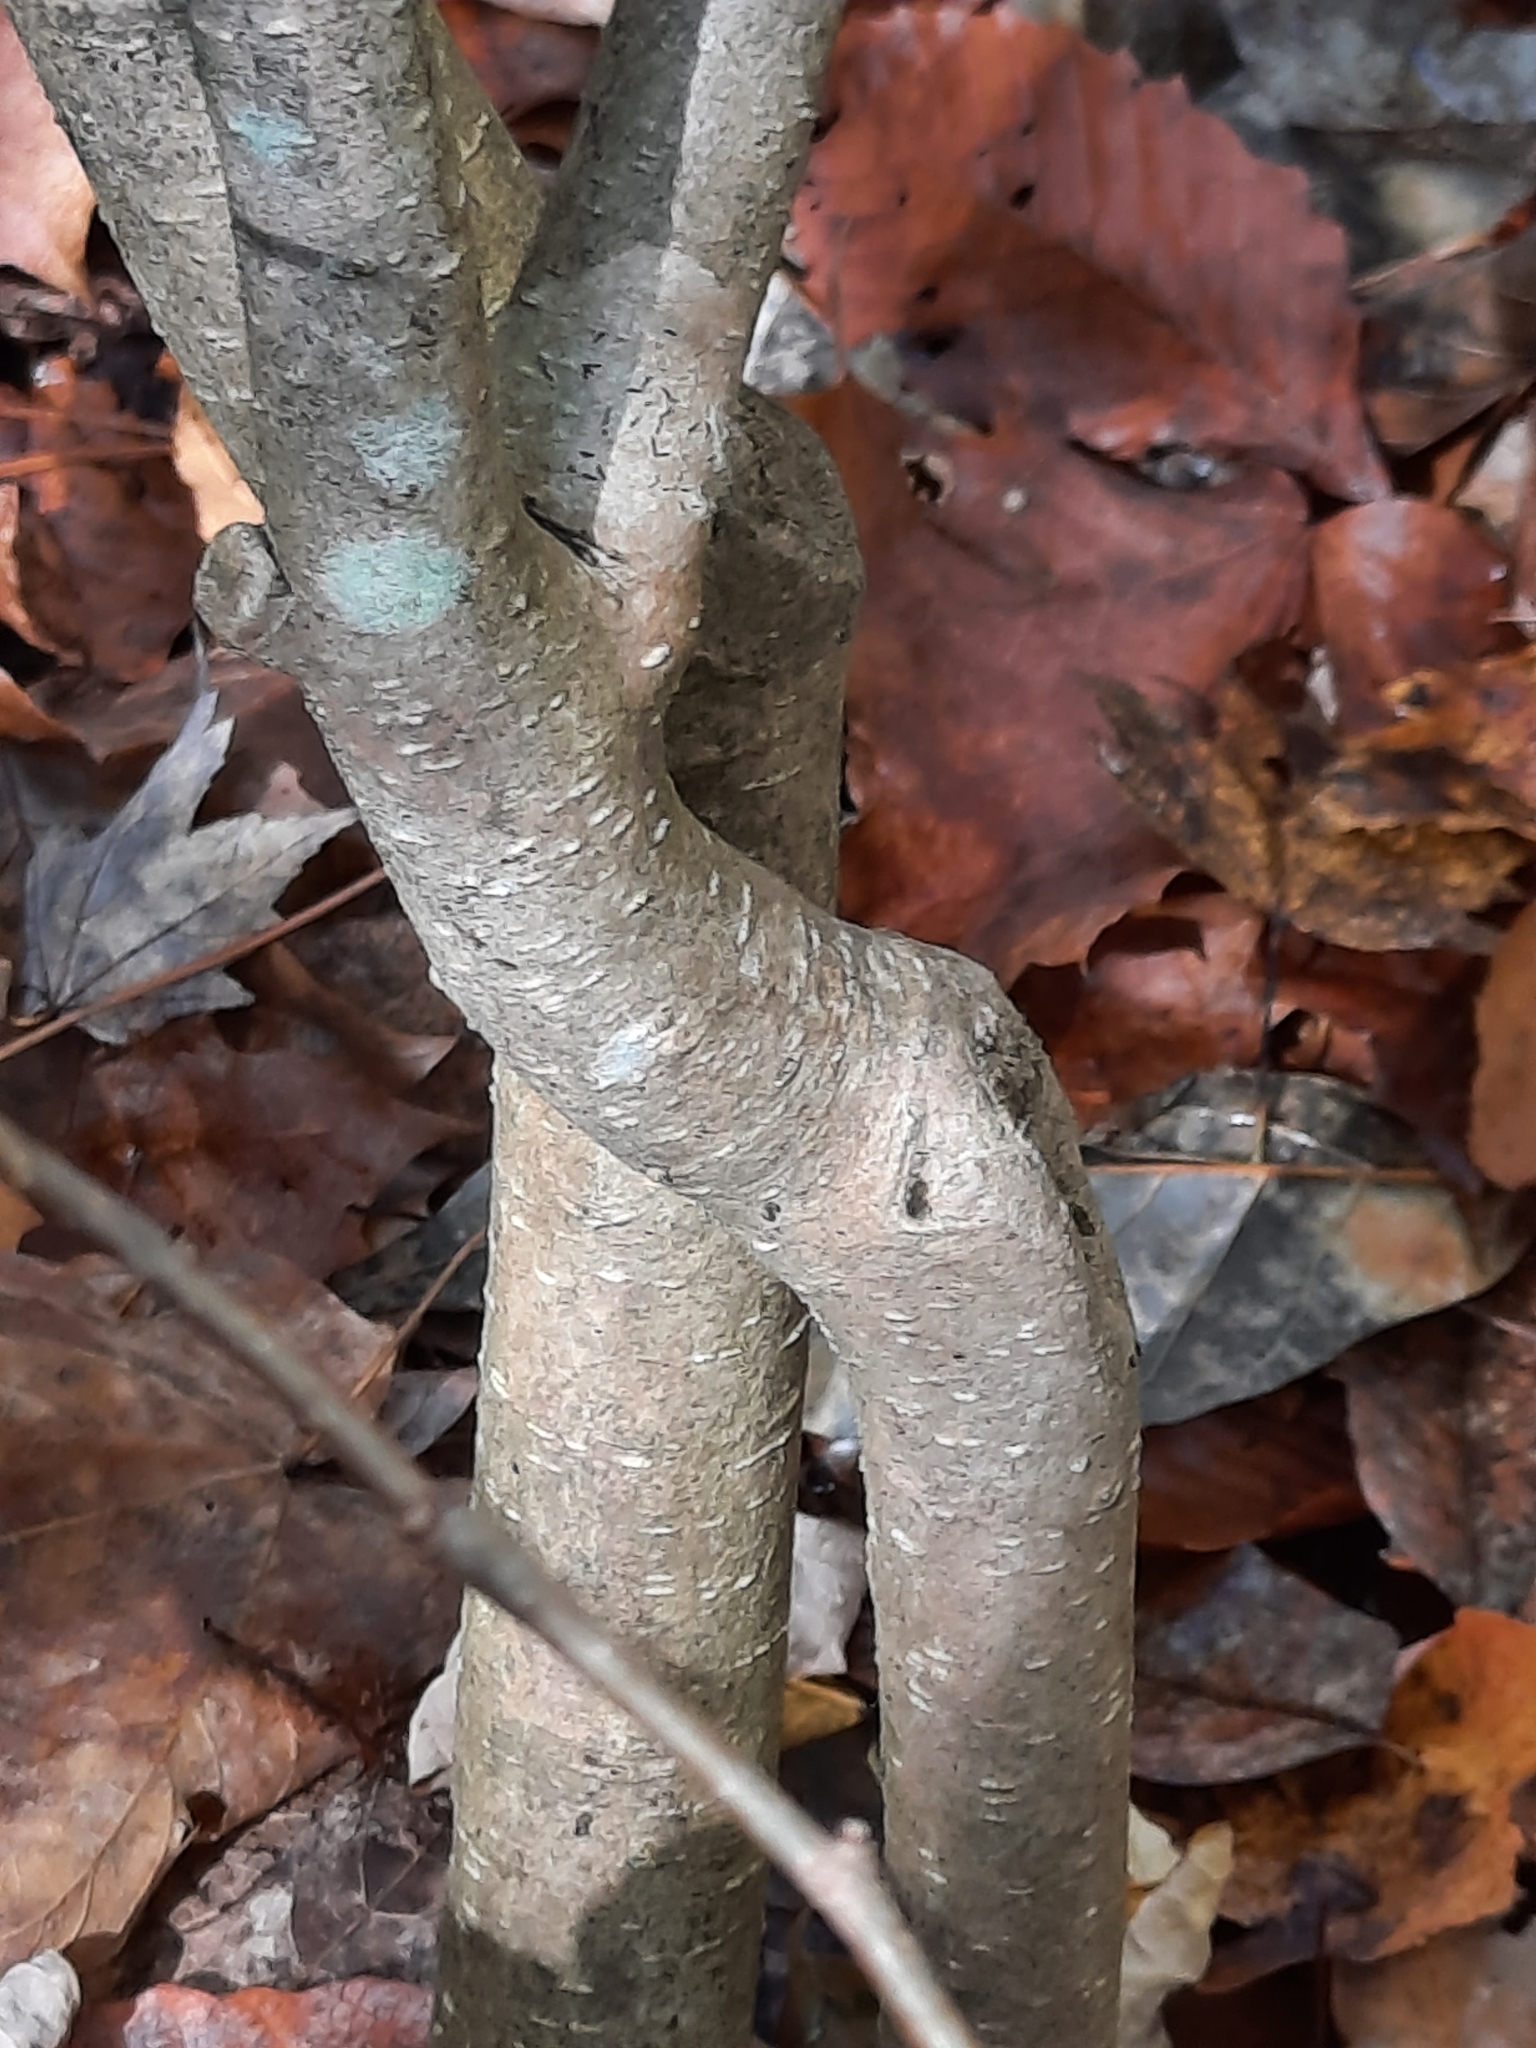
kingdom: Plantae
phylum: Tracheophyta
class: Magnoliopsida
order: Malvales
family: Thymelaeaceae
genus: Dirca
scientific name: Dirca palustris
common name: Leatherwood
